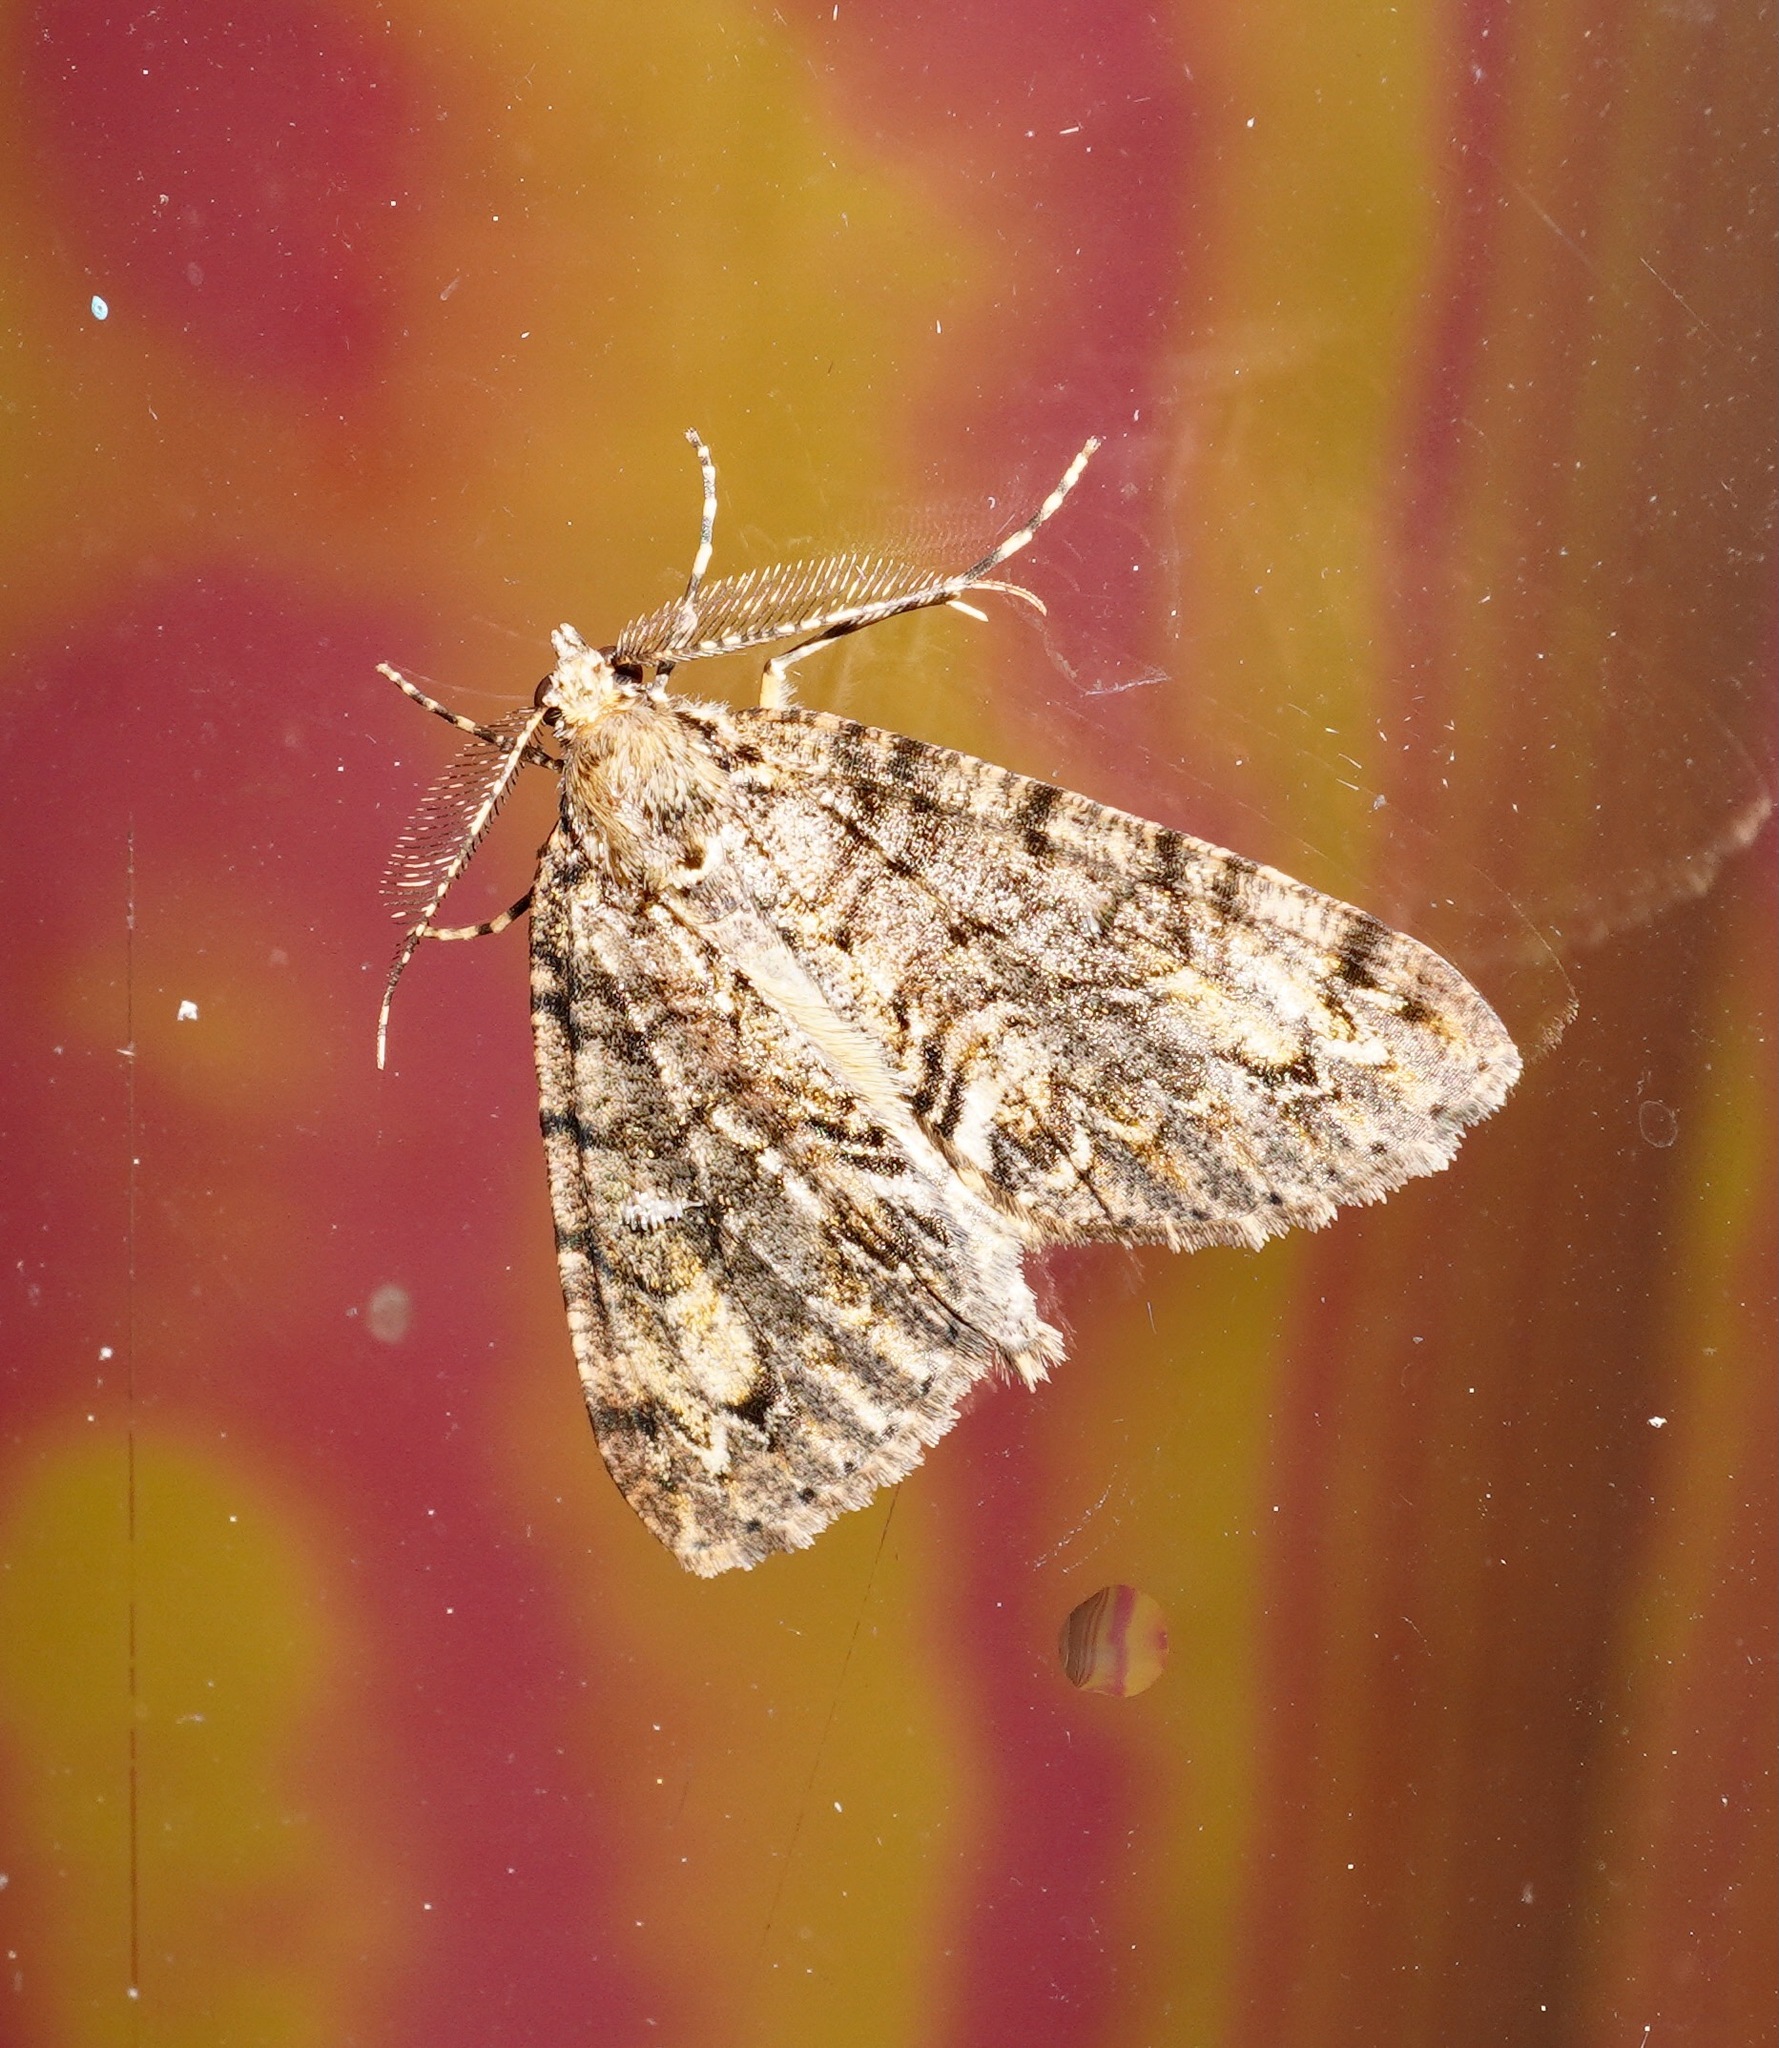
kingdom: Animalia
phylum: Arthropoda
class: Insecta
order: Lepidoptera
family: Geometridae
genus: Pseudocoremia
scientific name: Pseudocoremia suavis
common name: Common forest looper
